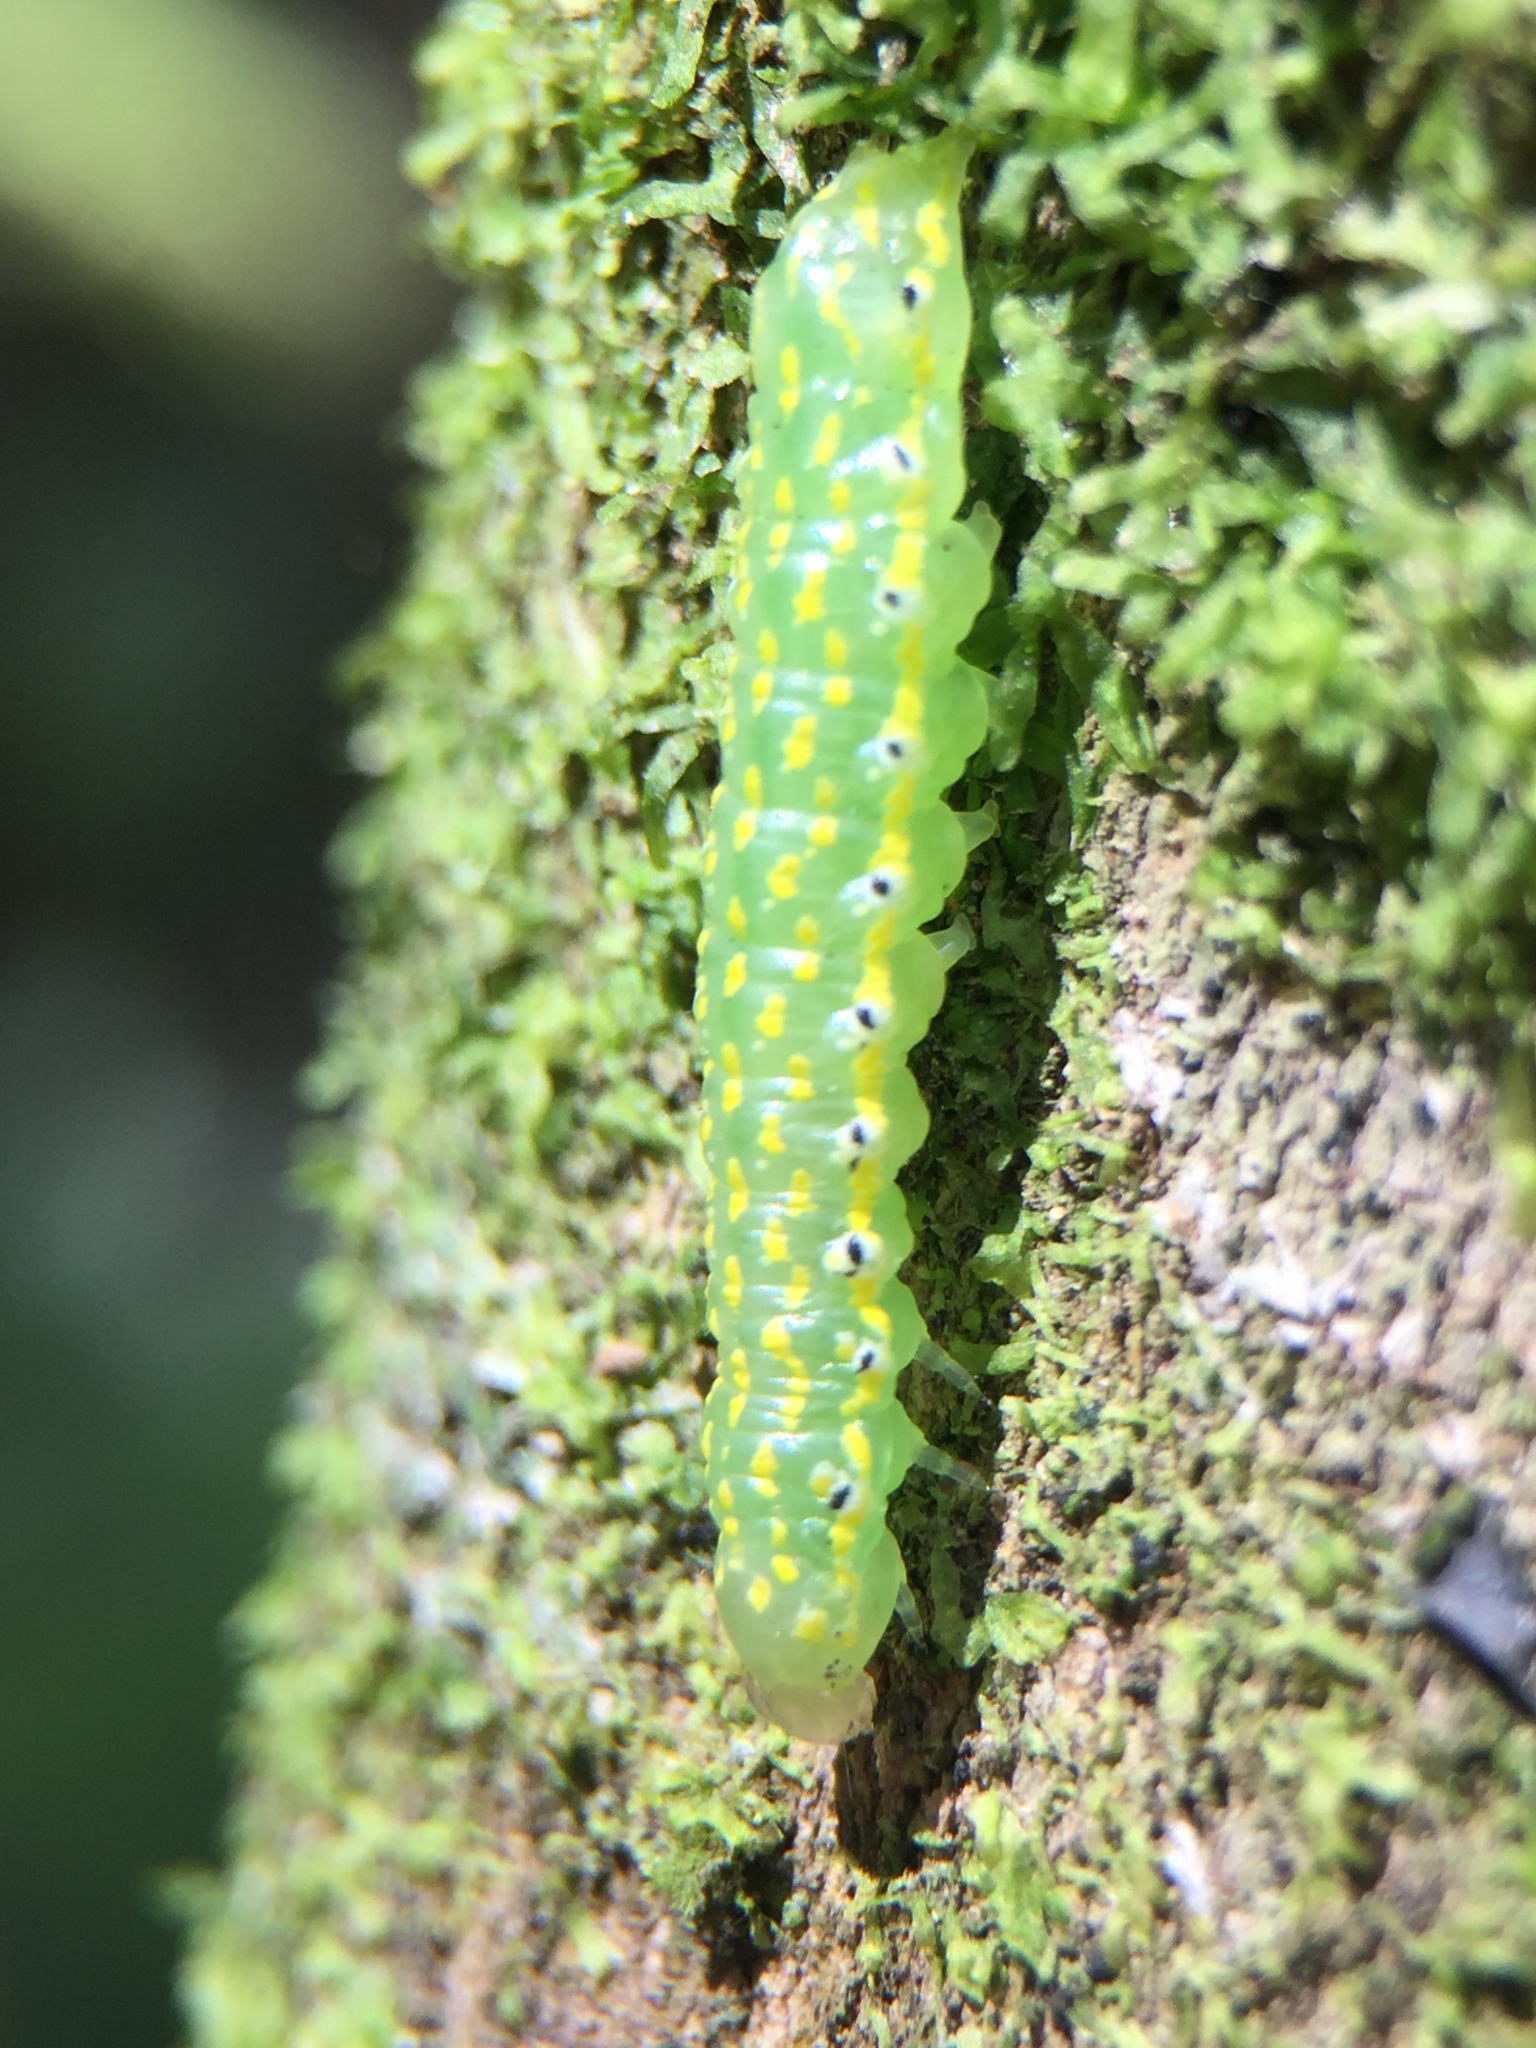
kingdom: Animalia
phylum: Arthropoda
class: Insecta
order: Lepidoptera
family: Noctuidae
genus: Austramathes
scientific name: Austramathes purpurea
